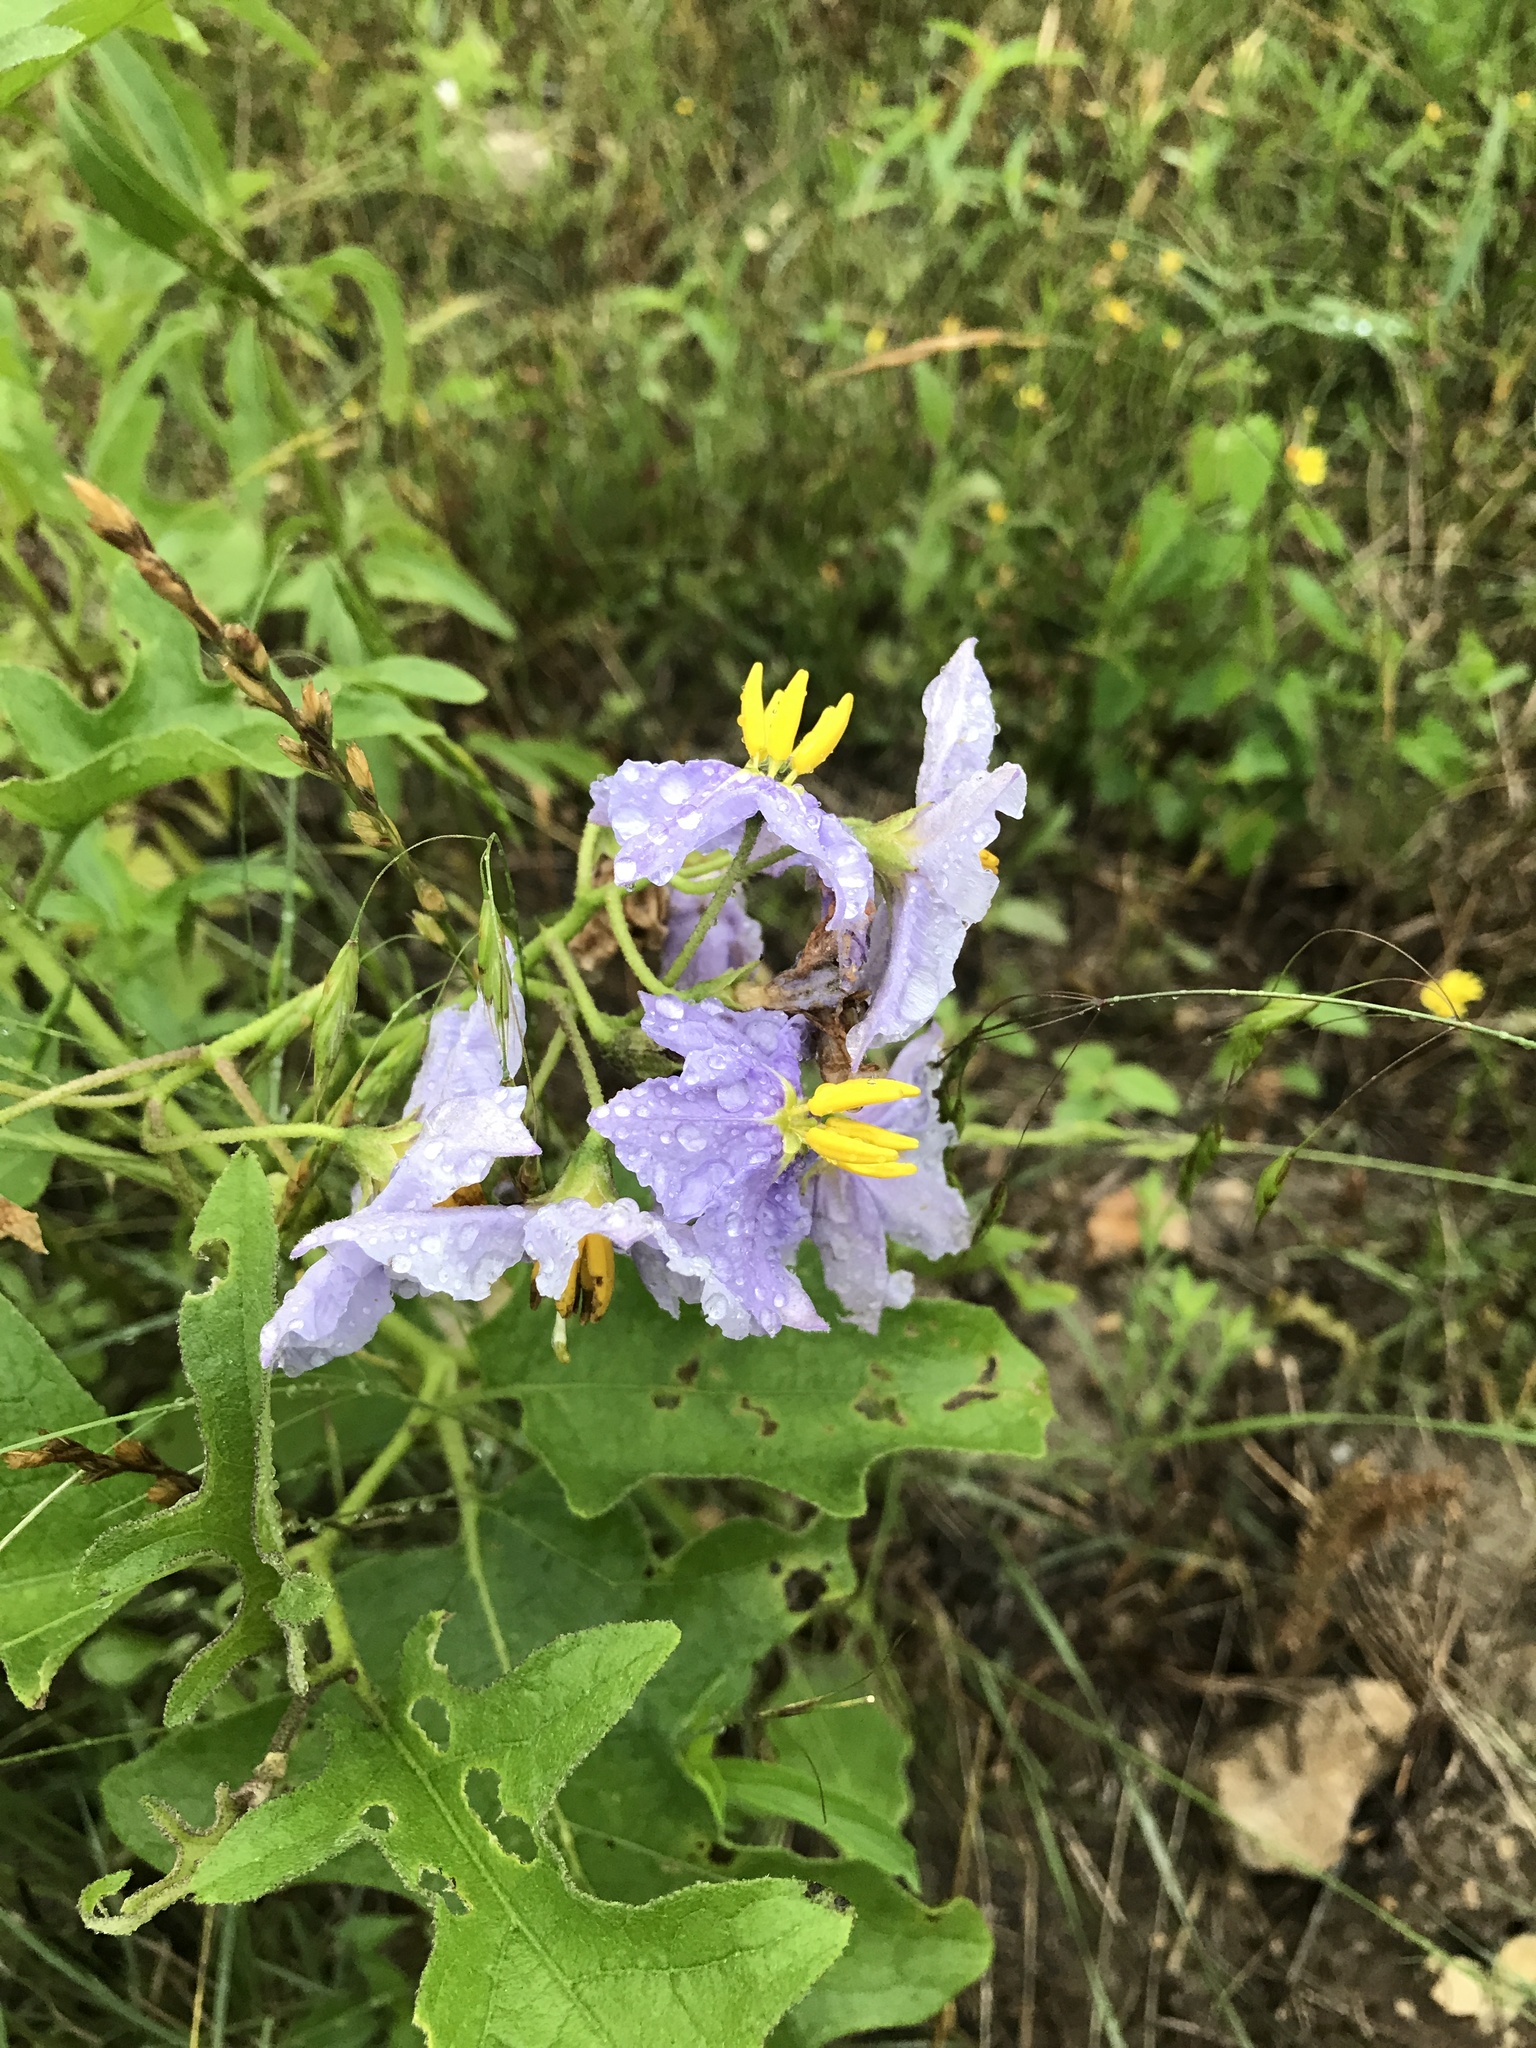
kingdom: Plantae
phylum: Tracheophyta
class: Magnoliopsida
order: Solanales
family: Solanaceae
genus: Solanum
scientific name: Solanum dimidiatum
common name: Carolina horse-nettle
